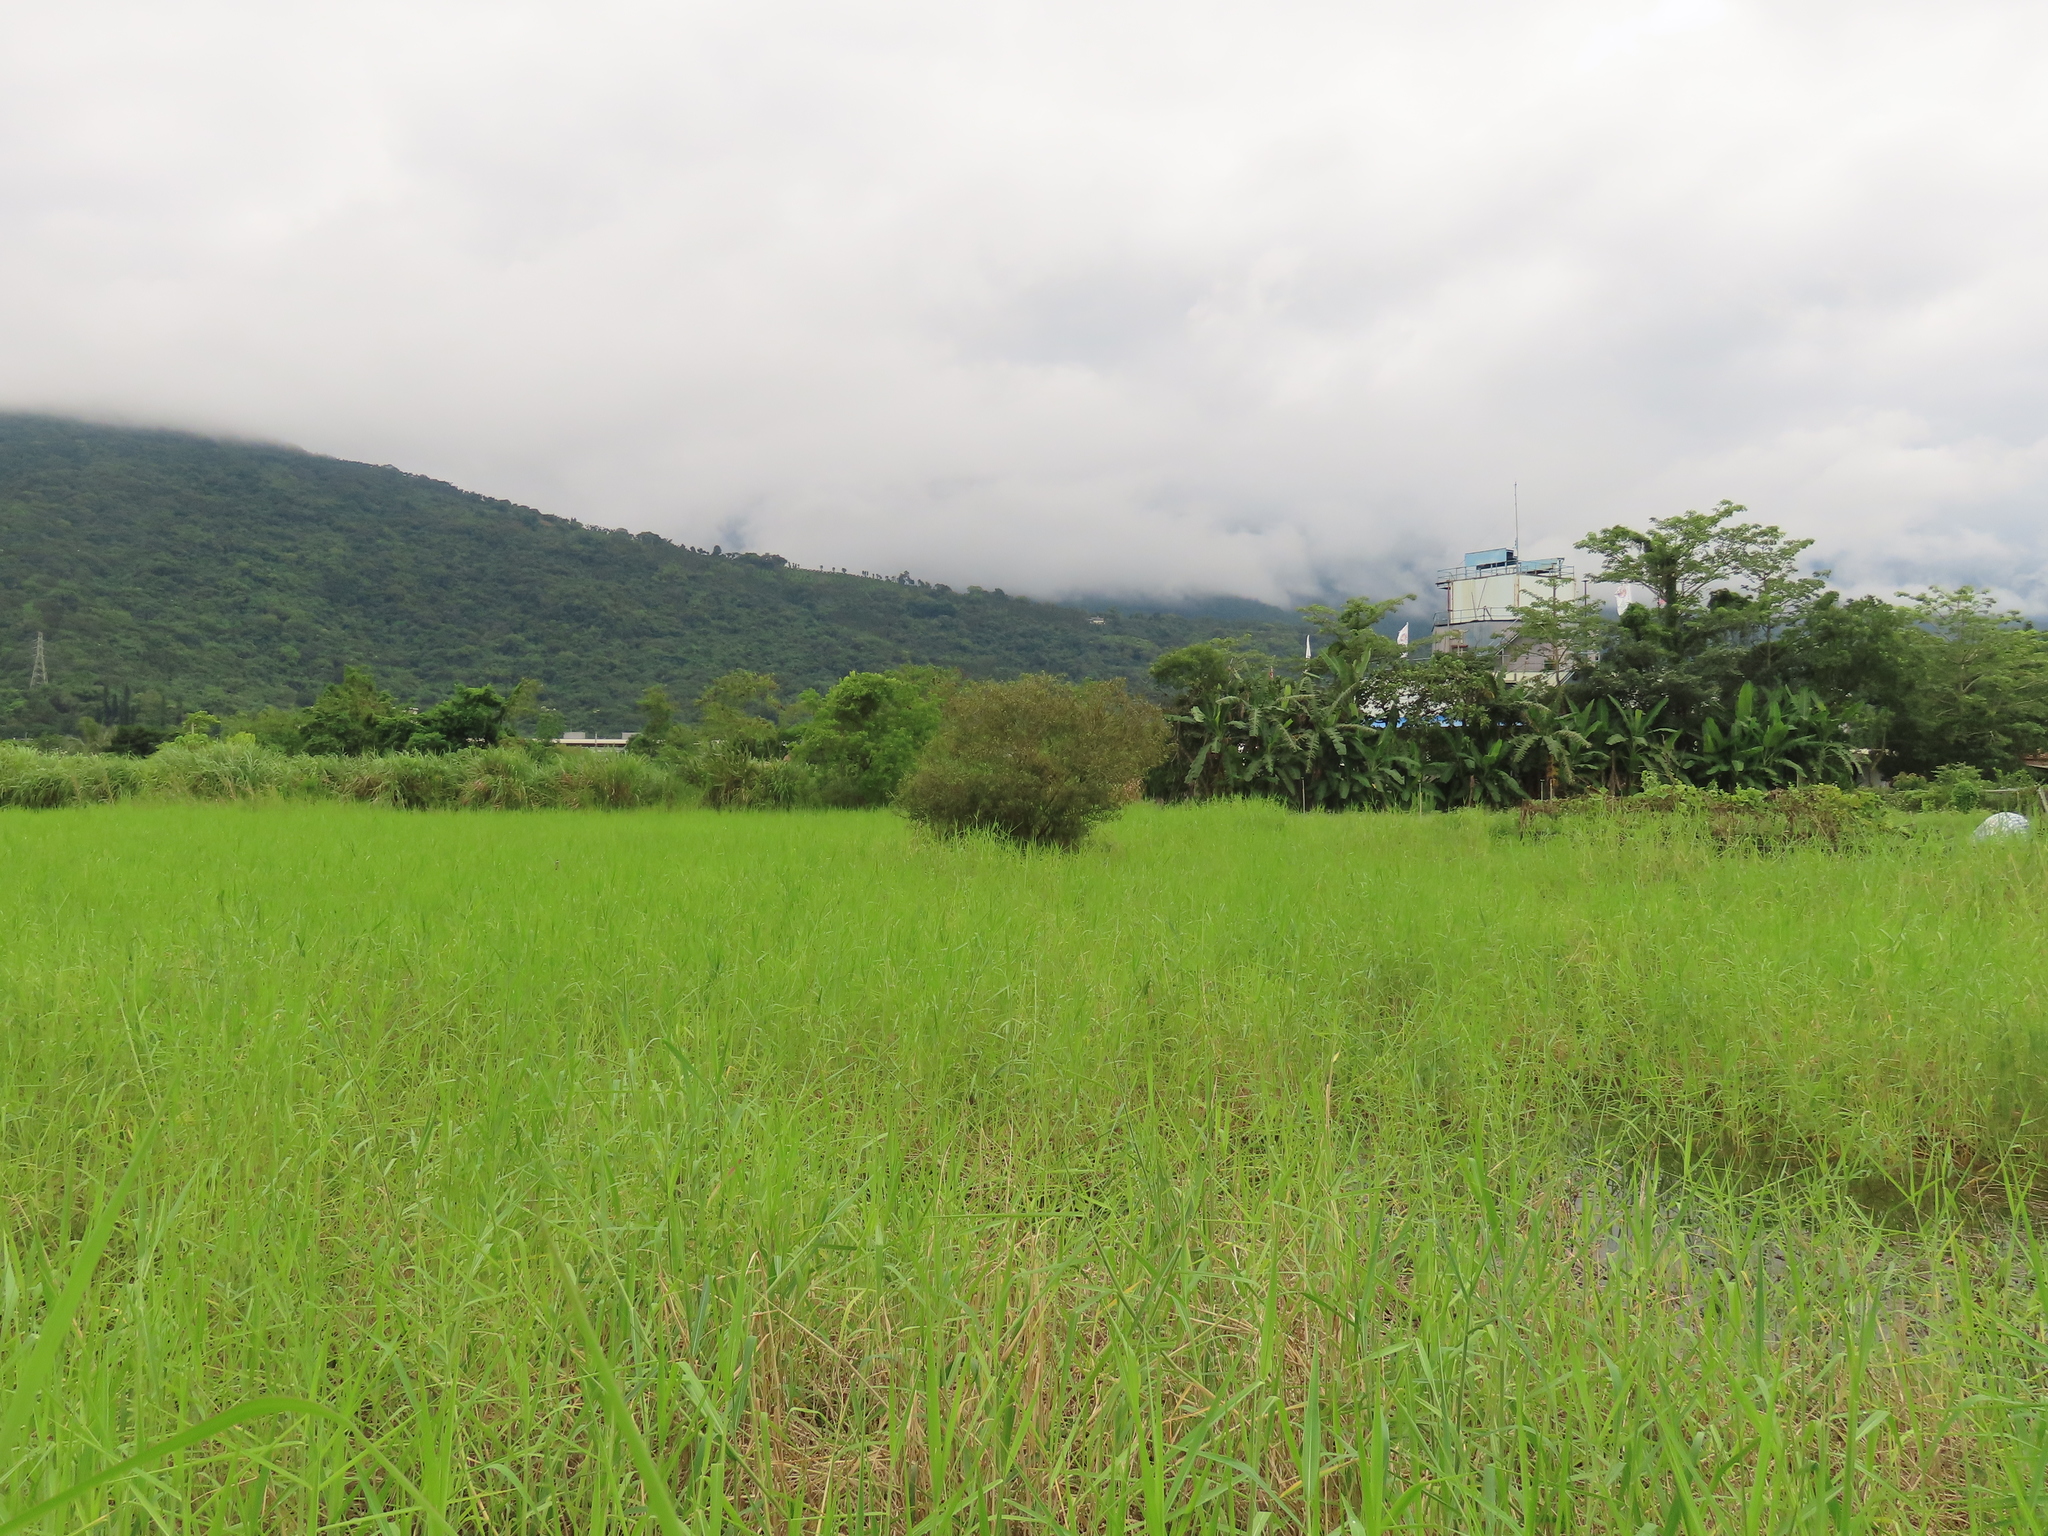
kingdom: Plantae
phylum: Tracheophyta
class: Magnoliopsida
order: Malpighiales
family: Salicaceae
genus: Salix
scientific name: Salix mesnyi
